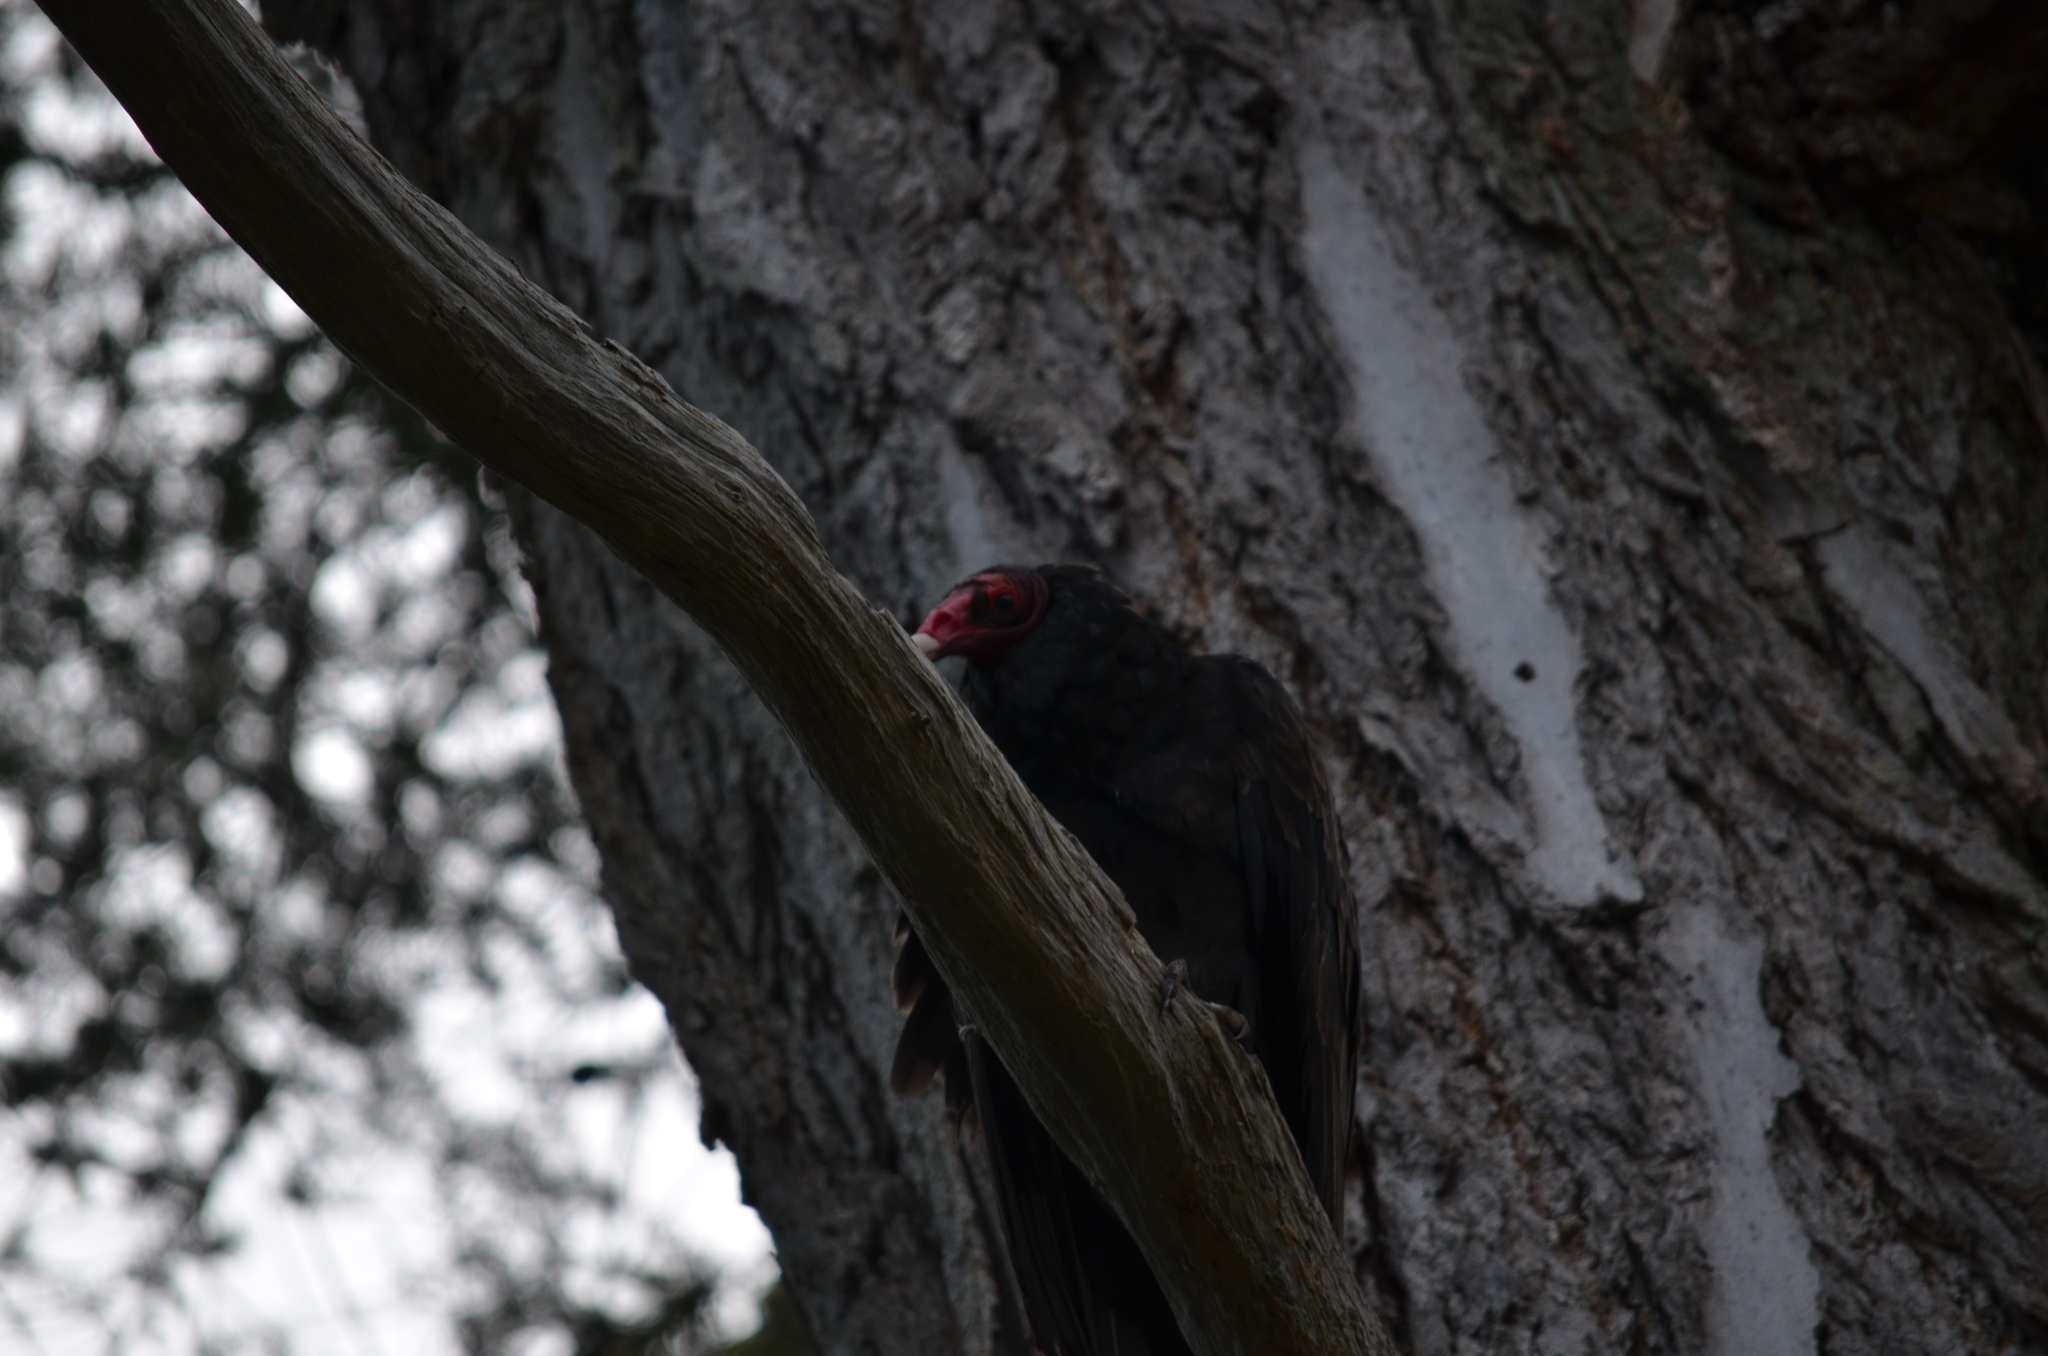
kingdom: Animalia
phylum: Chordata
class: Aves
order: Accipitriformes
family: Cathartidae
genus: Cathartes
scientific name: Cathartes aura
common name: Turkey vulture
